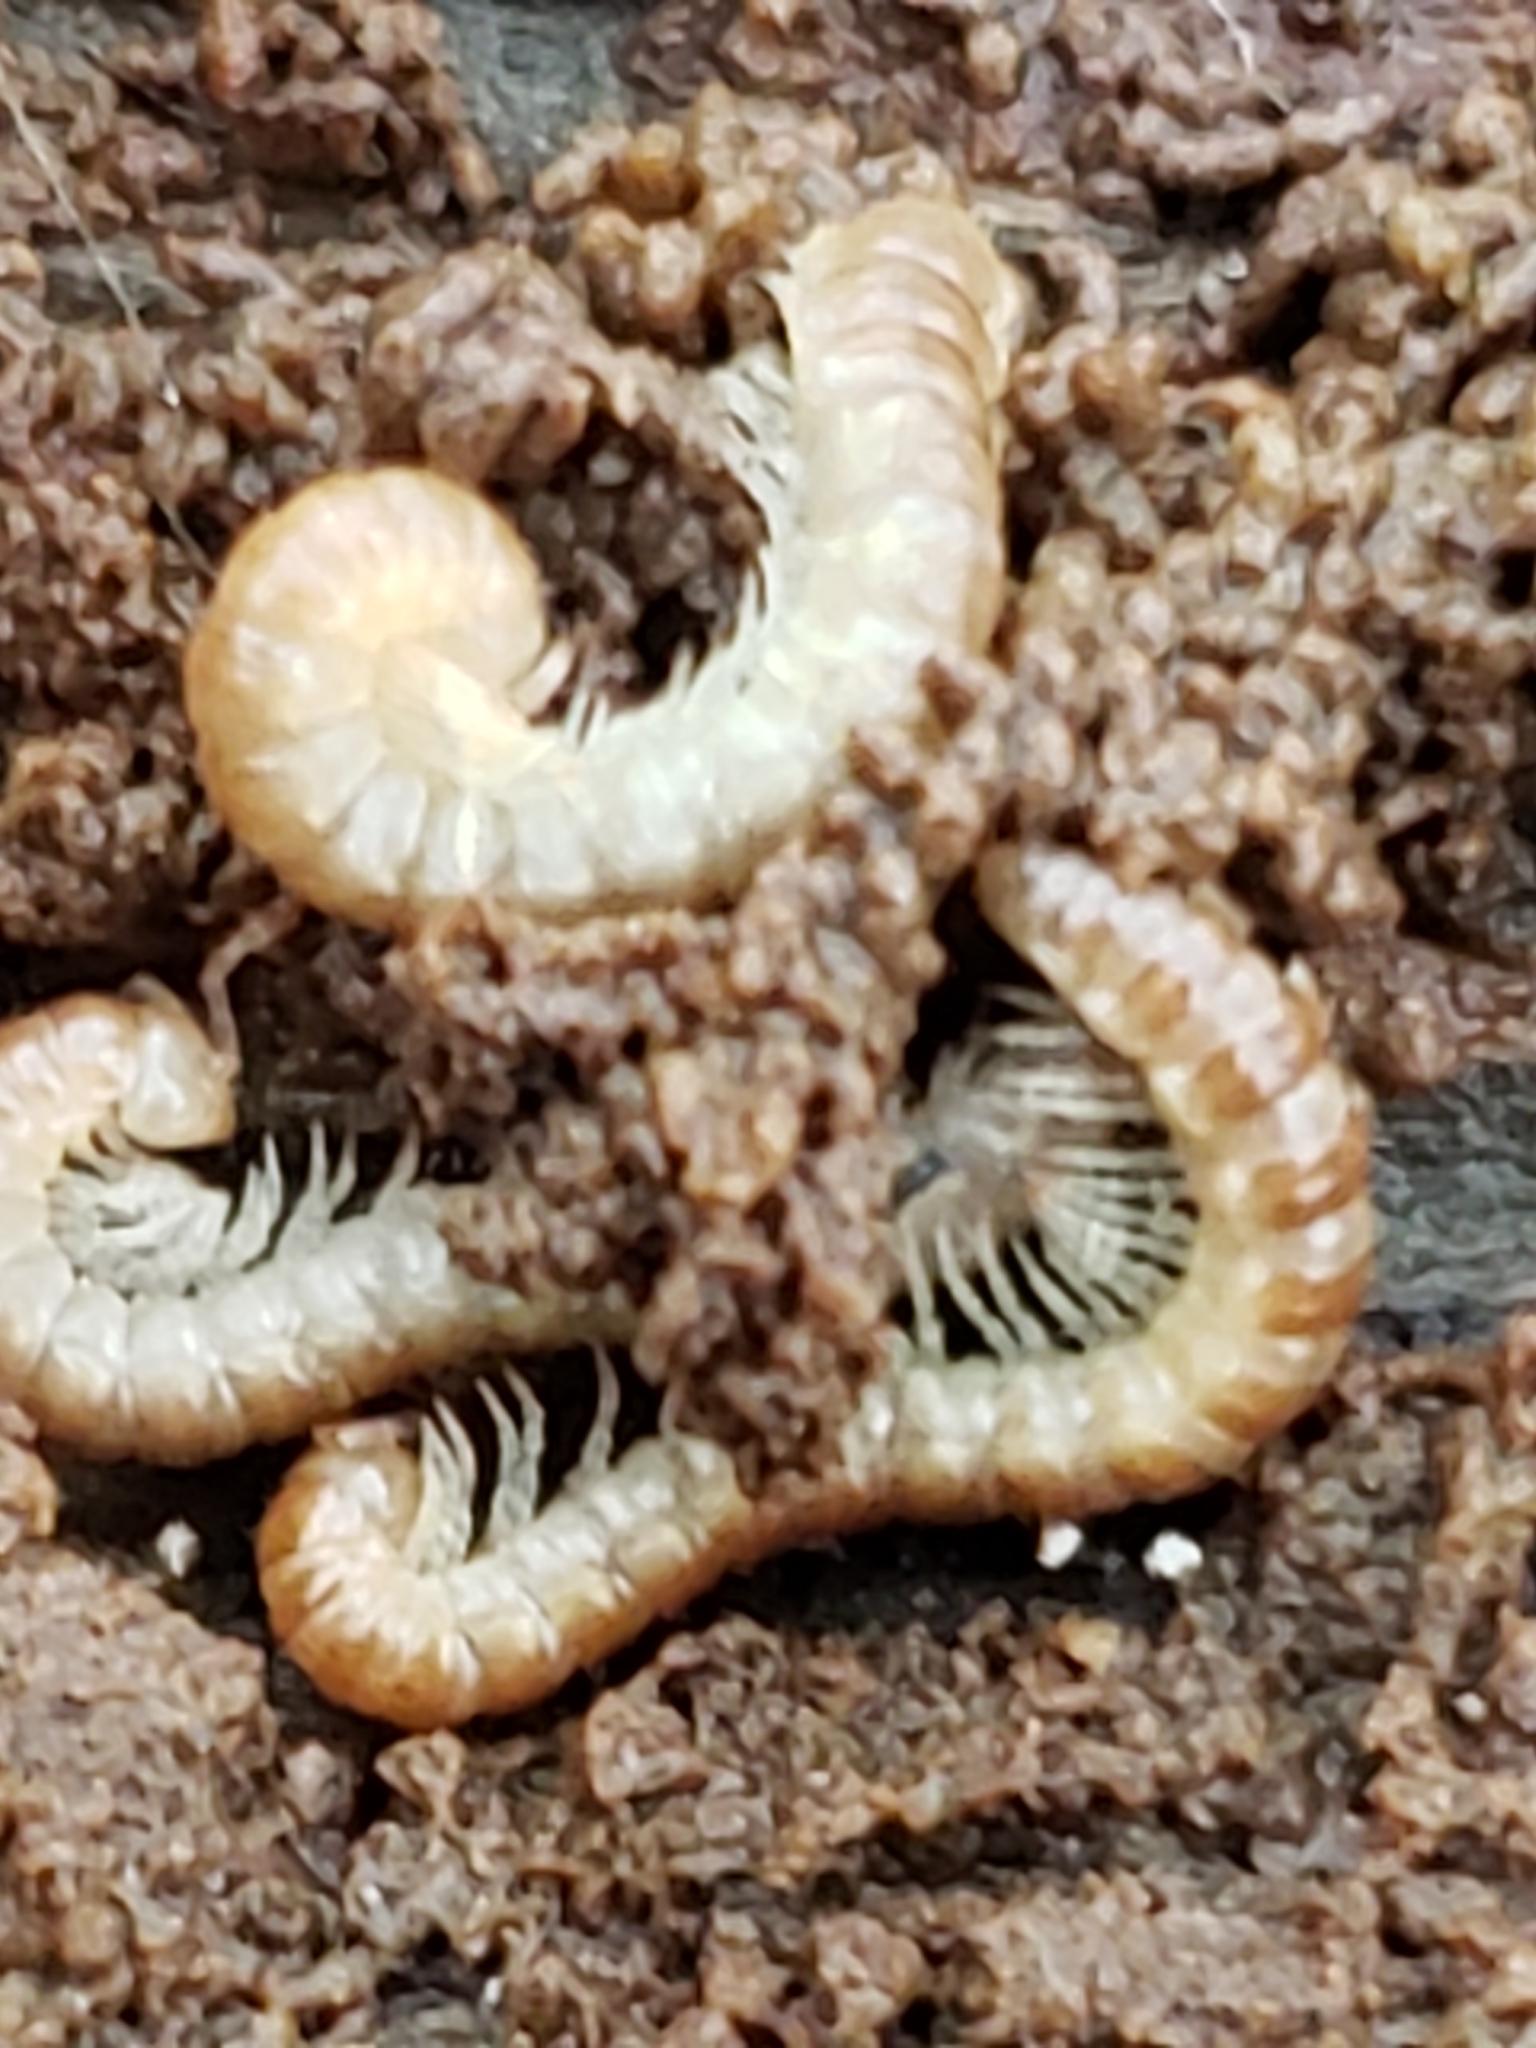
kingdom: Animalia
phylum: Arthropoda
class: Diplopoda
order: Polydesmida
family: Paradoxosomatidae
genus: Oxidus
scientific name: Oxidus gracilis
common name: Greenhouse millipede
